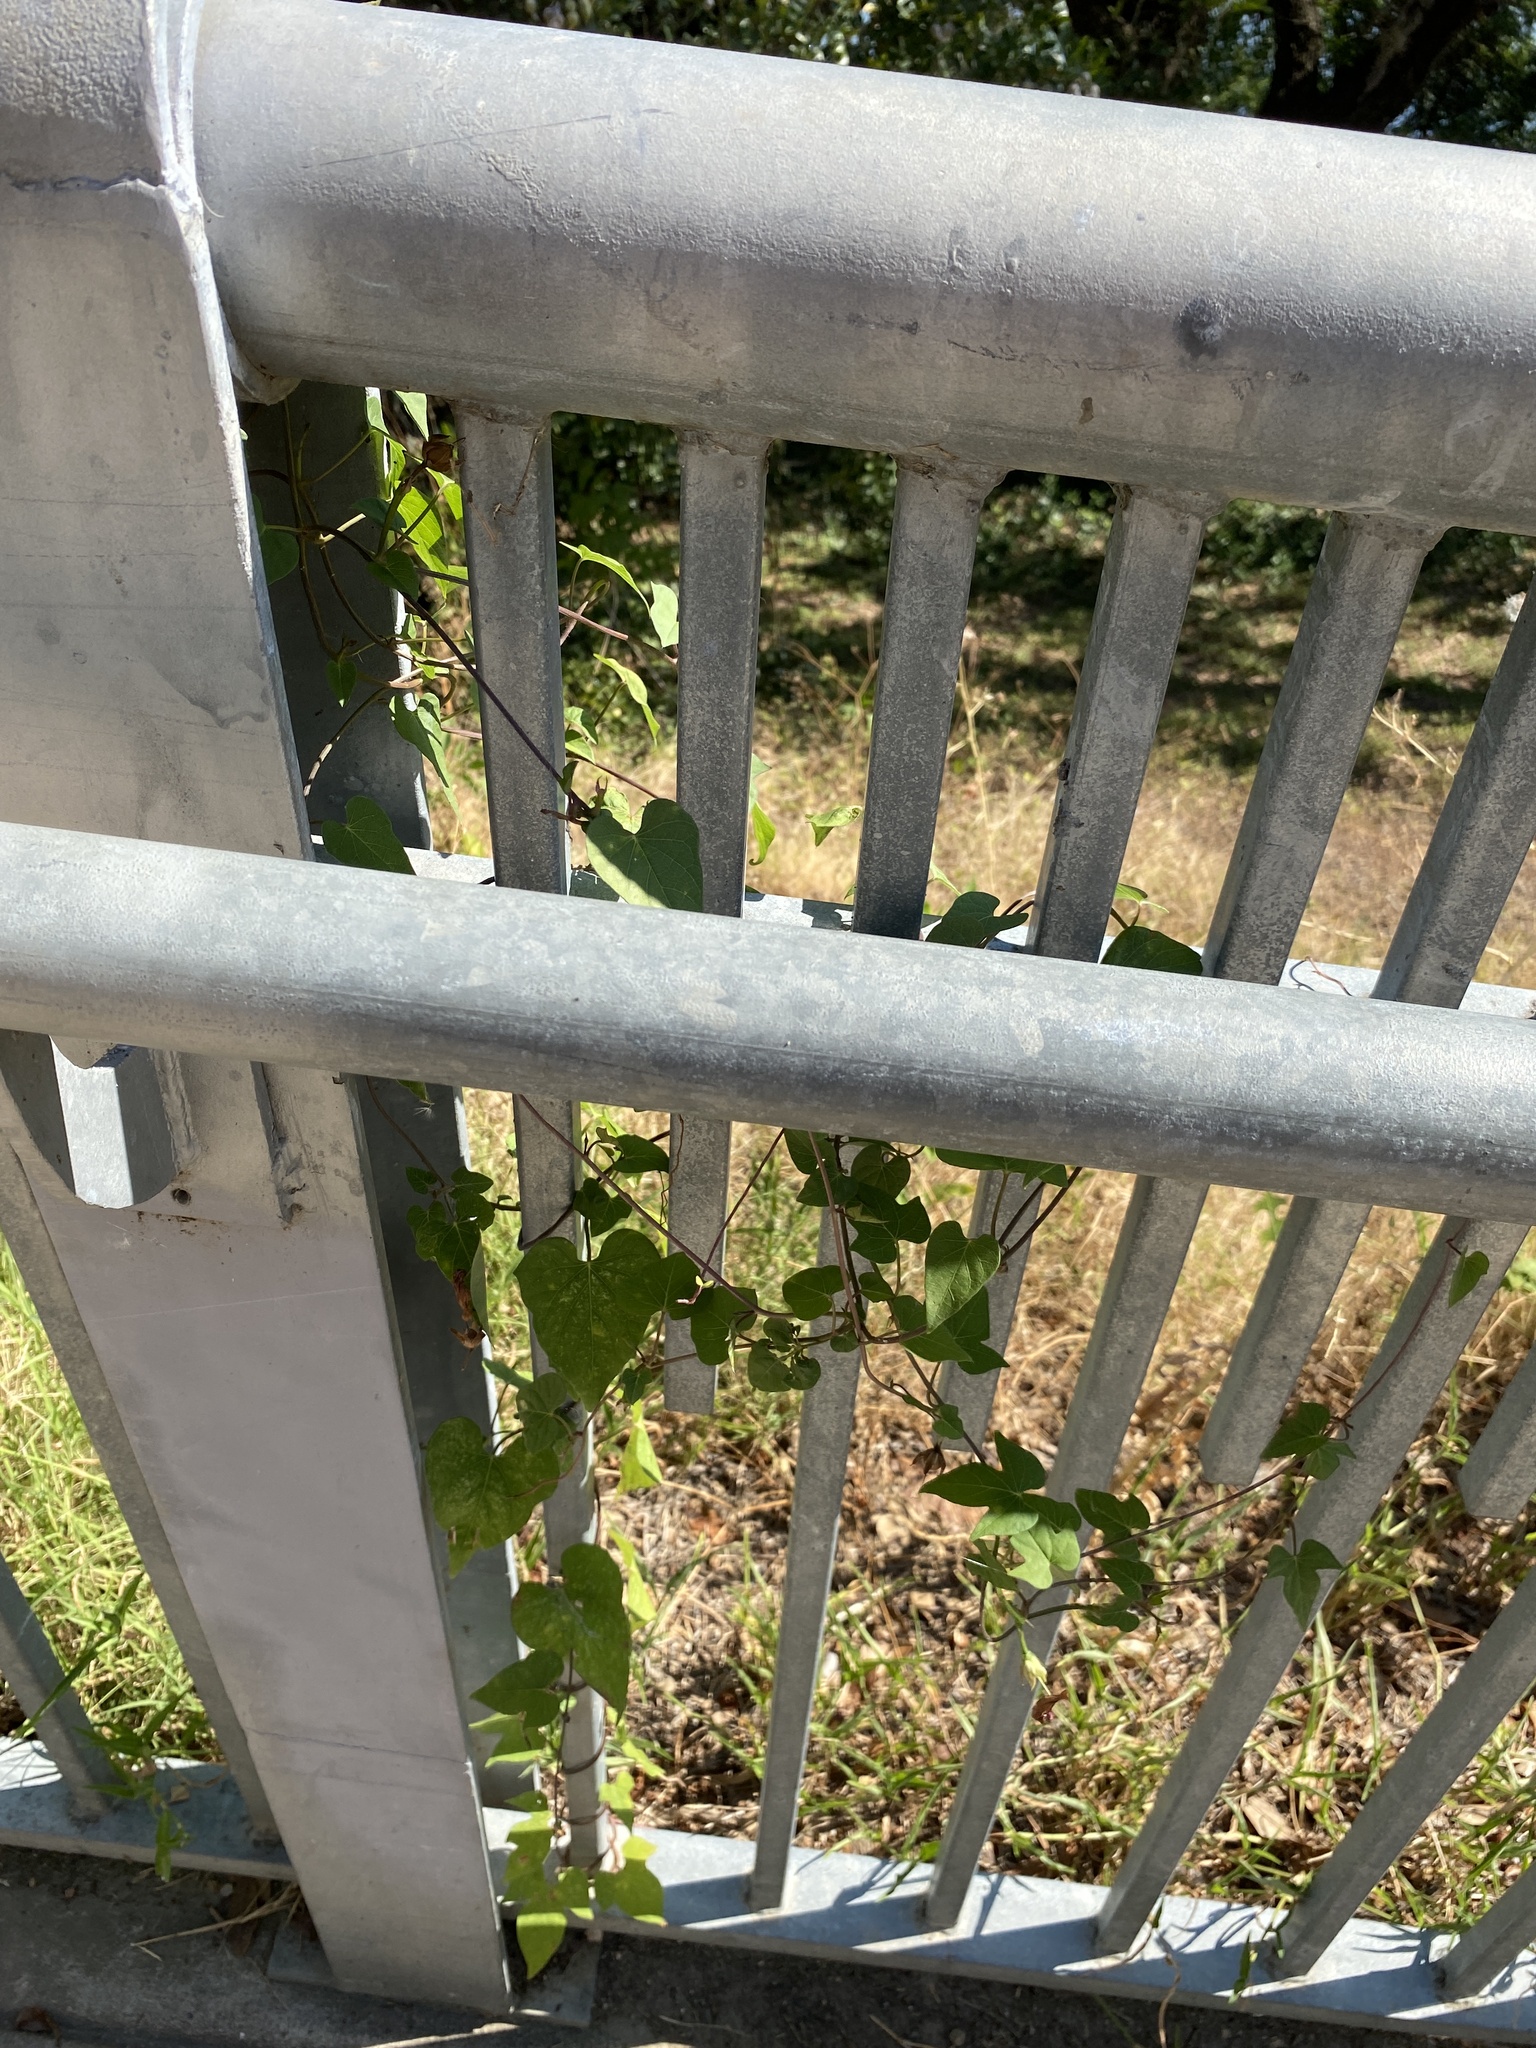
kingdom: Plantae
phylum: Tracheophyta
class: Magnoliopsida
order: Solanales
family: Convolvulaceae
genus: Ipomoea
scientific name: Ipomoea cordatotriloba
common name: Cotton morning glory
